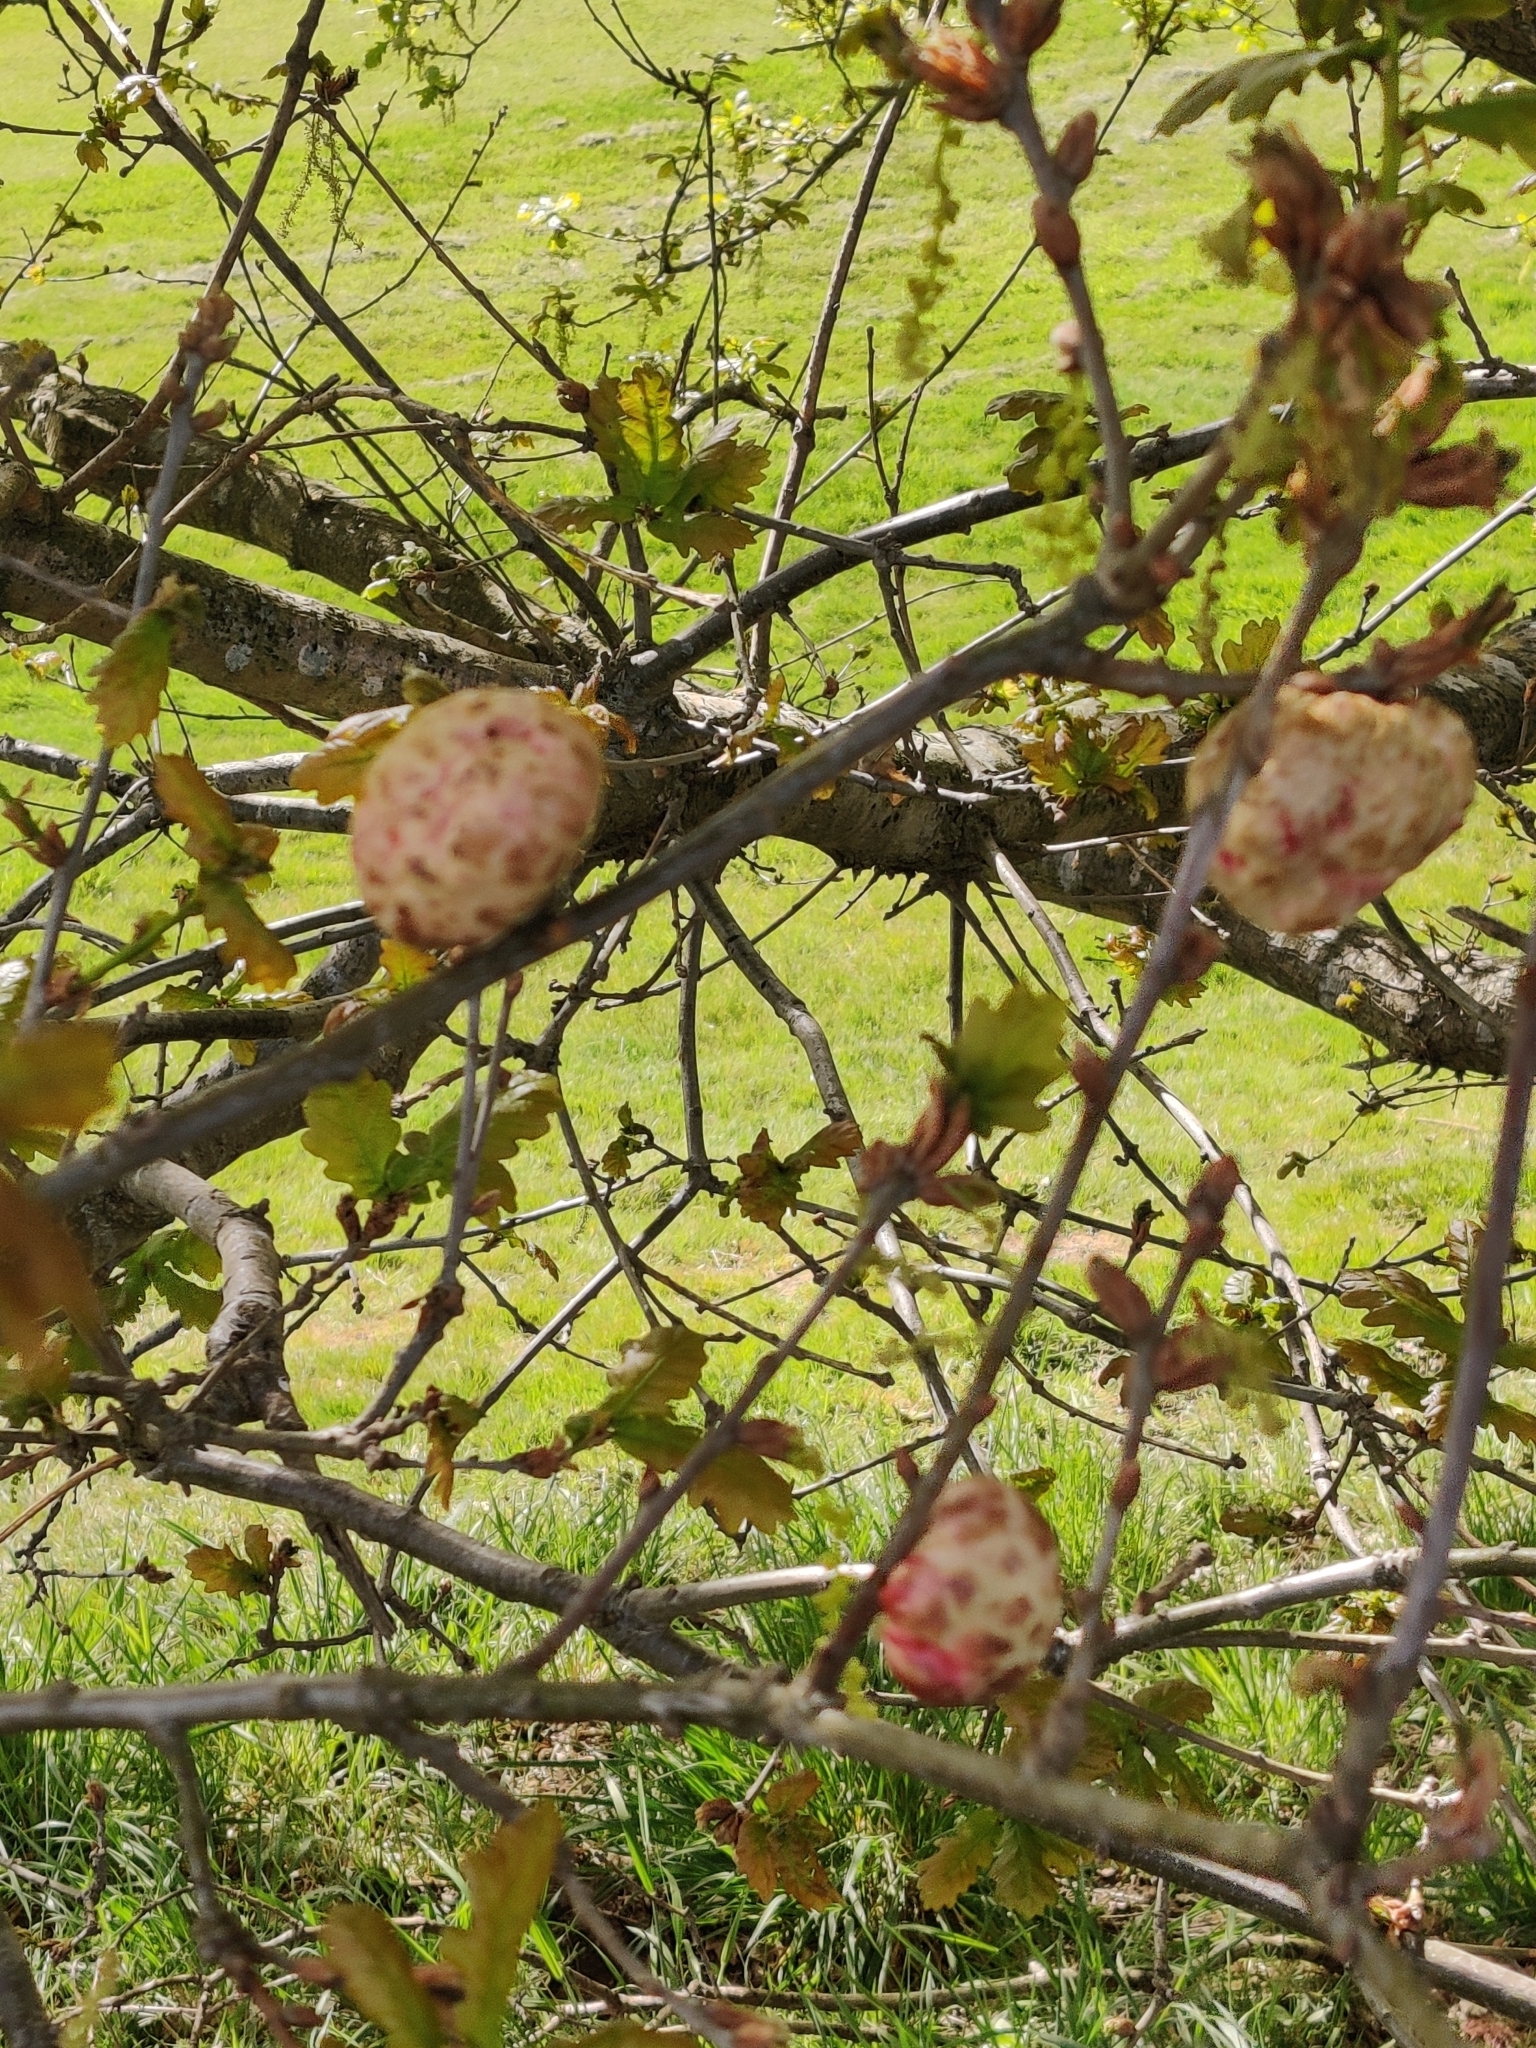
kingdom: Animalia
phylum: Arthropoda
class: Insecta
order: Hymenoptera
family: Cynipidae
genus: Biorhiza
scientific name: Biorhiza pallida
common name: Oak apple
